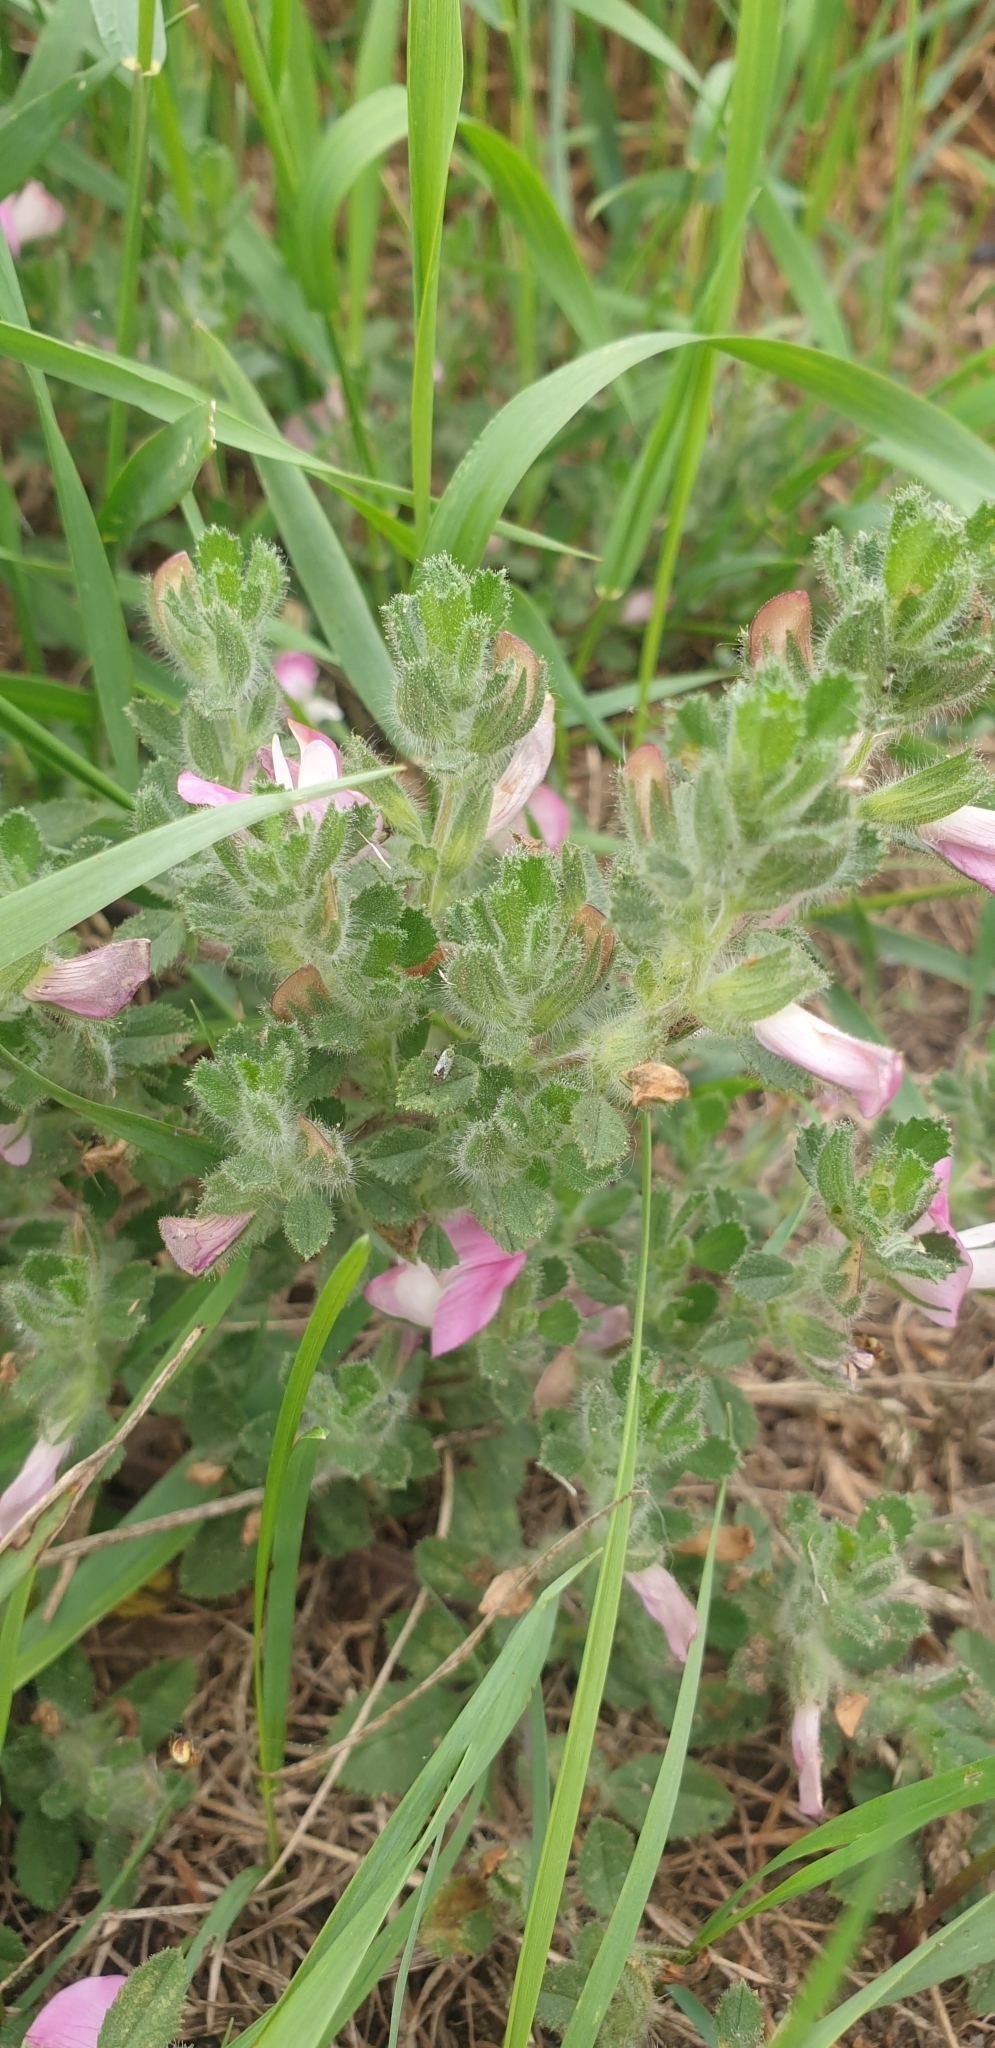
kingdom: Plantae
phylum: Tracheophyta
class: Magnoliopsida
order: Fabales
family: Fabaceae
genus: Ononis
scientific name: Ononis spinosa
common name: Spiny restharrow
